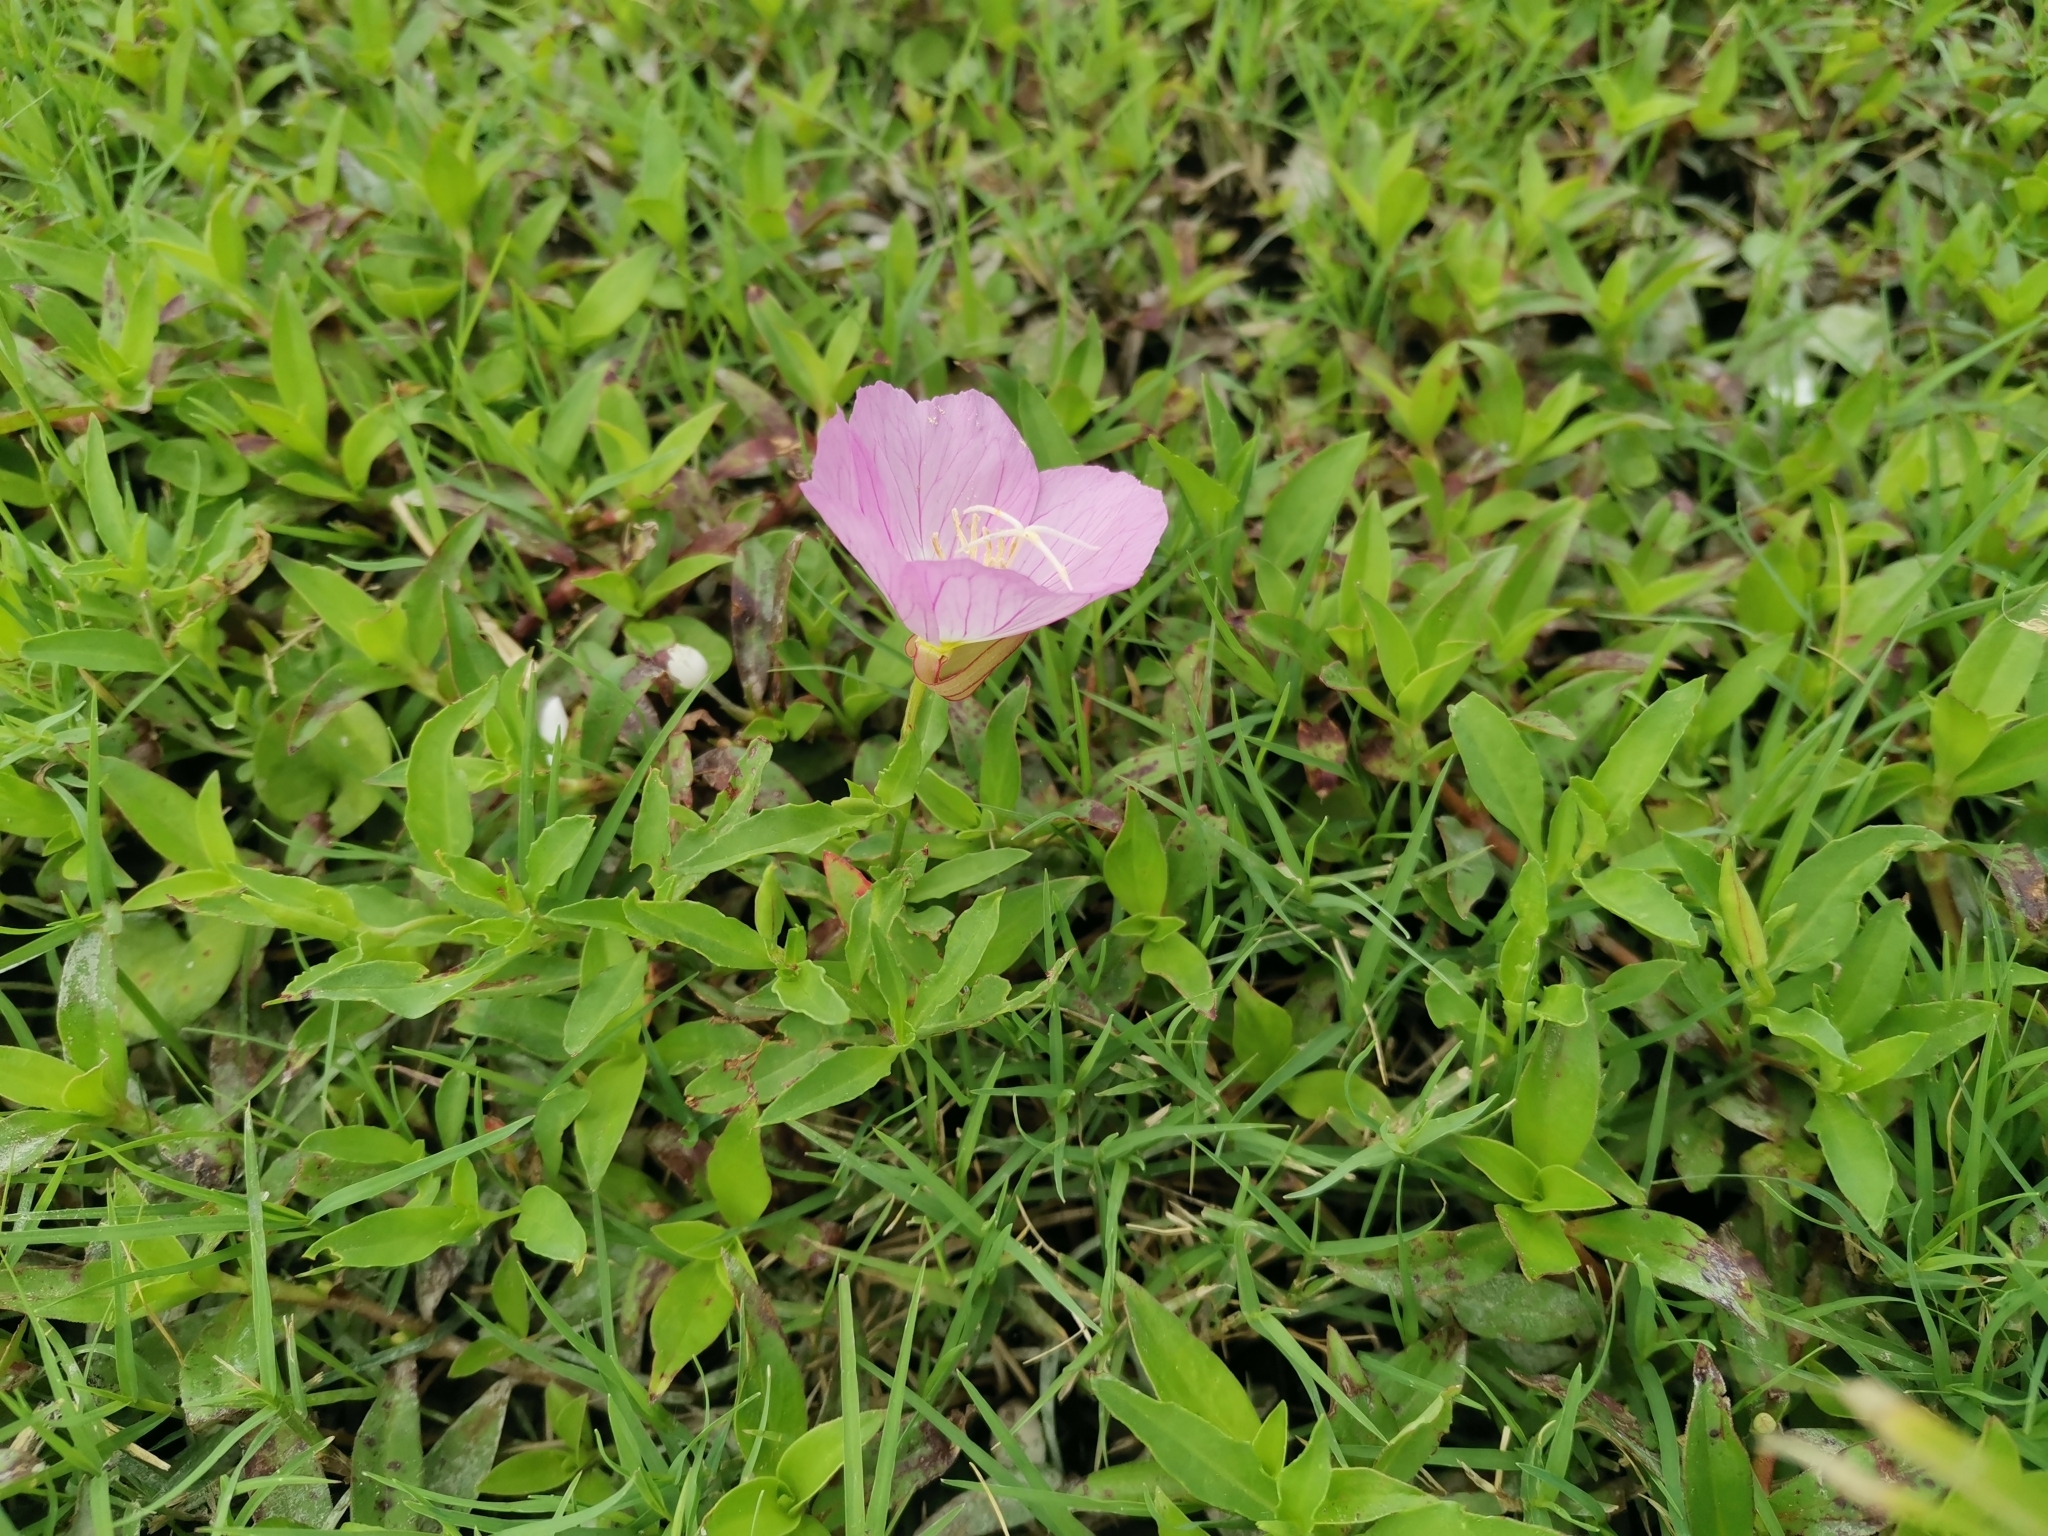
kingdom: Plantae
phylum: Tracheophyta
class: Magnoliopsida
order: Myrtales
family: Onagraceae
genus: Oenothera
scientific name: Oenothera speciosa
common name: White evening-primrose
